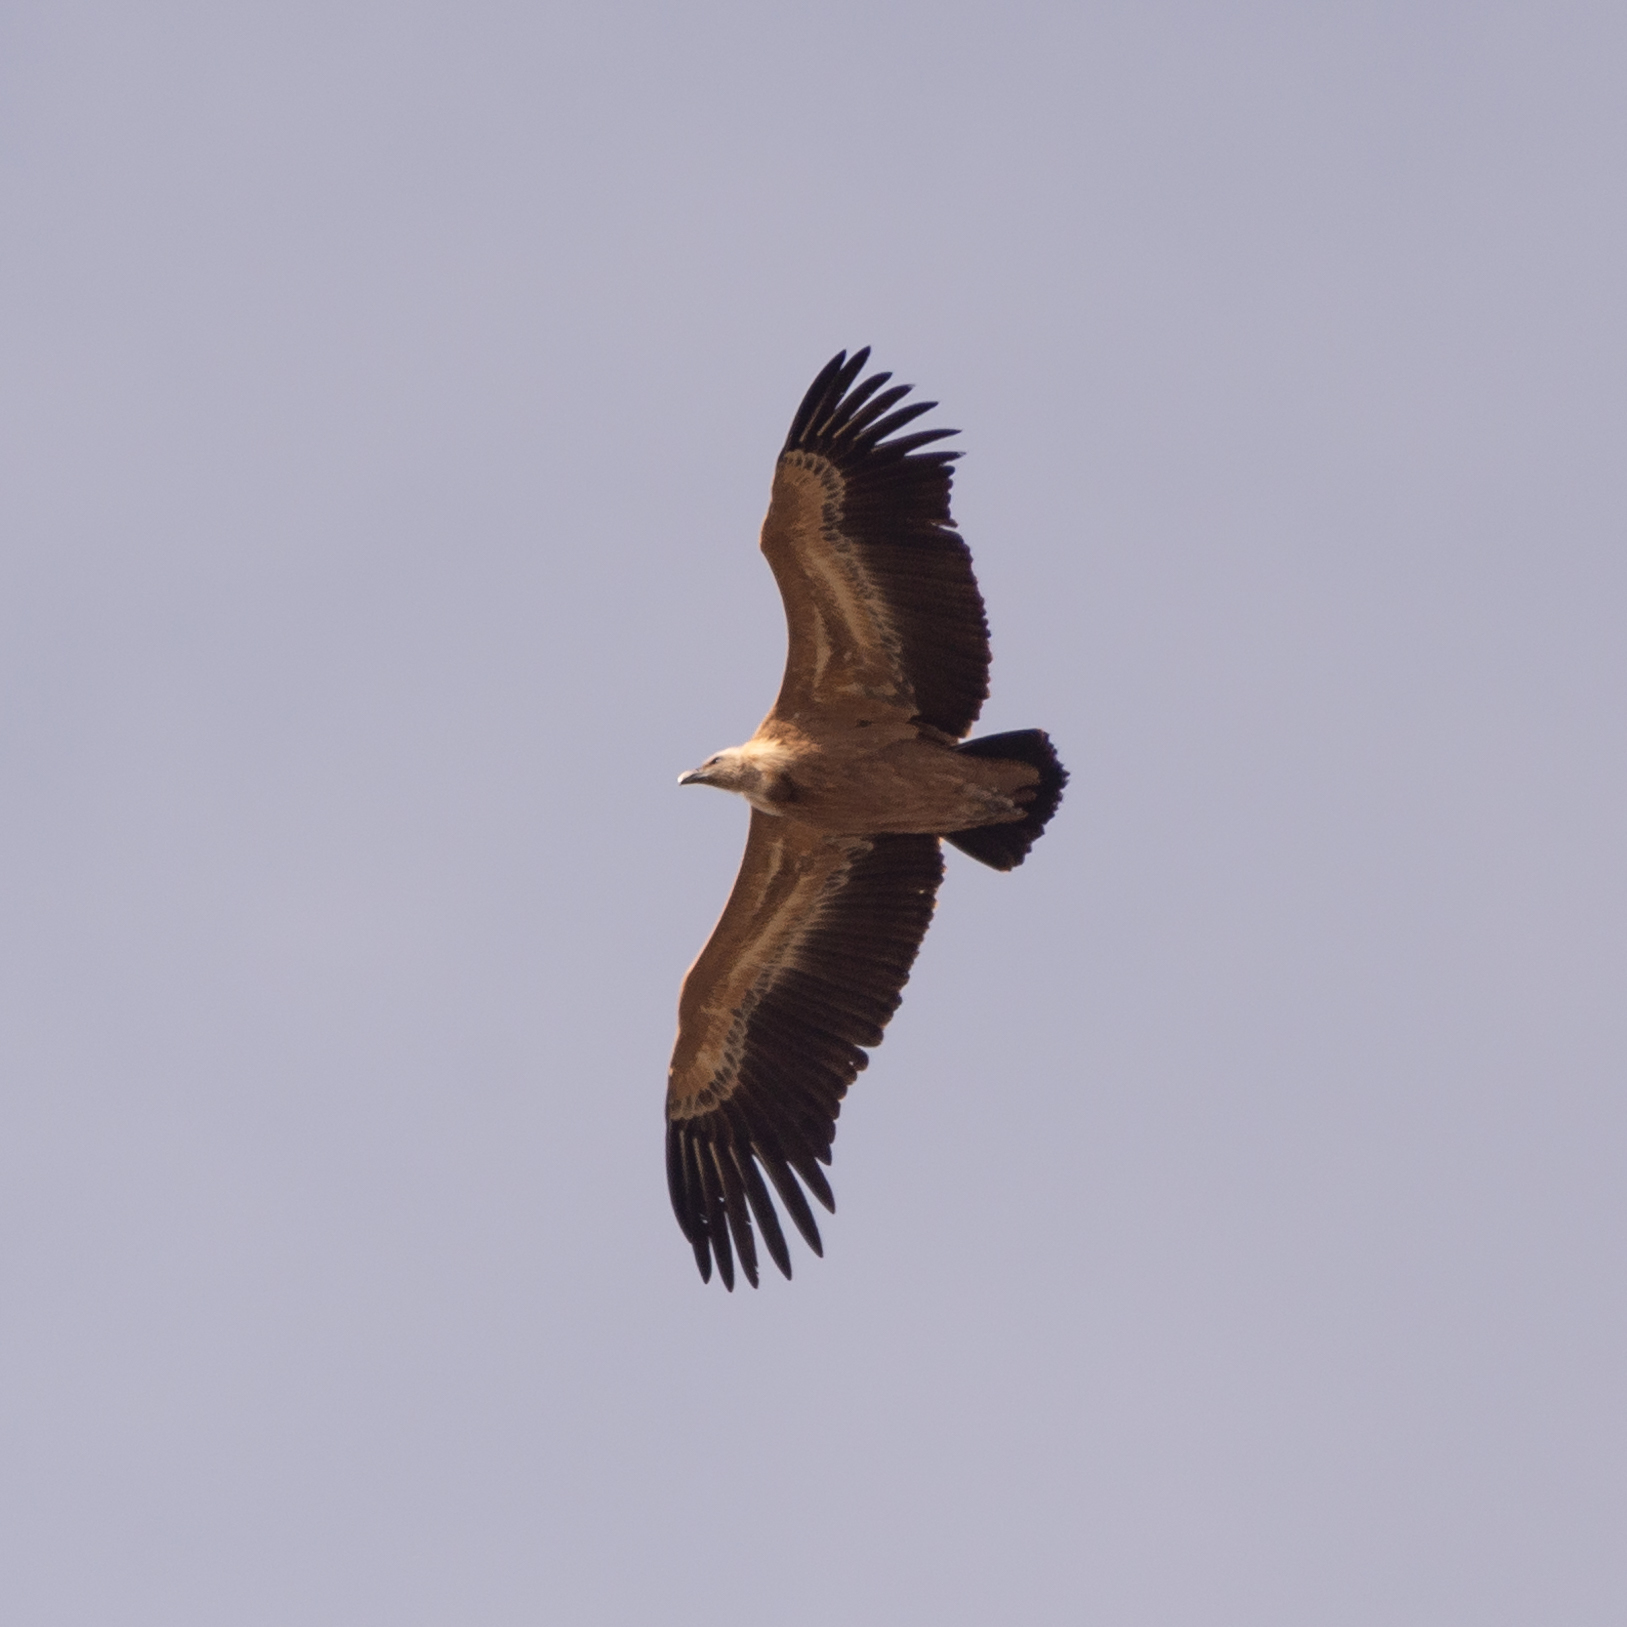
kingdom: Animalia
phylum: Chordata
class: Aves
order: Accipitriformes
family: Accipitridae
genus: Gyps
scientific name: Gyps fulvus
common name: Griffon vulture
